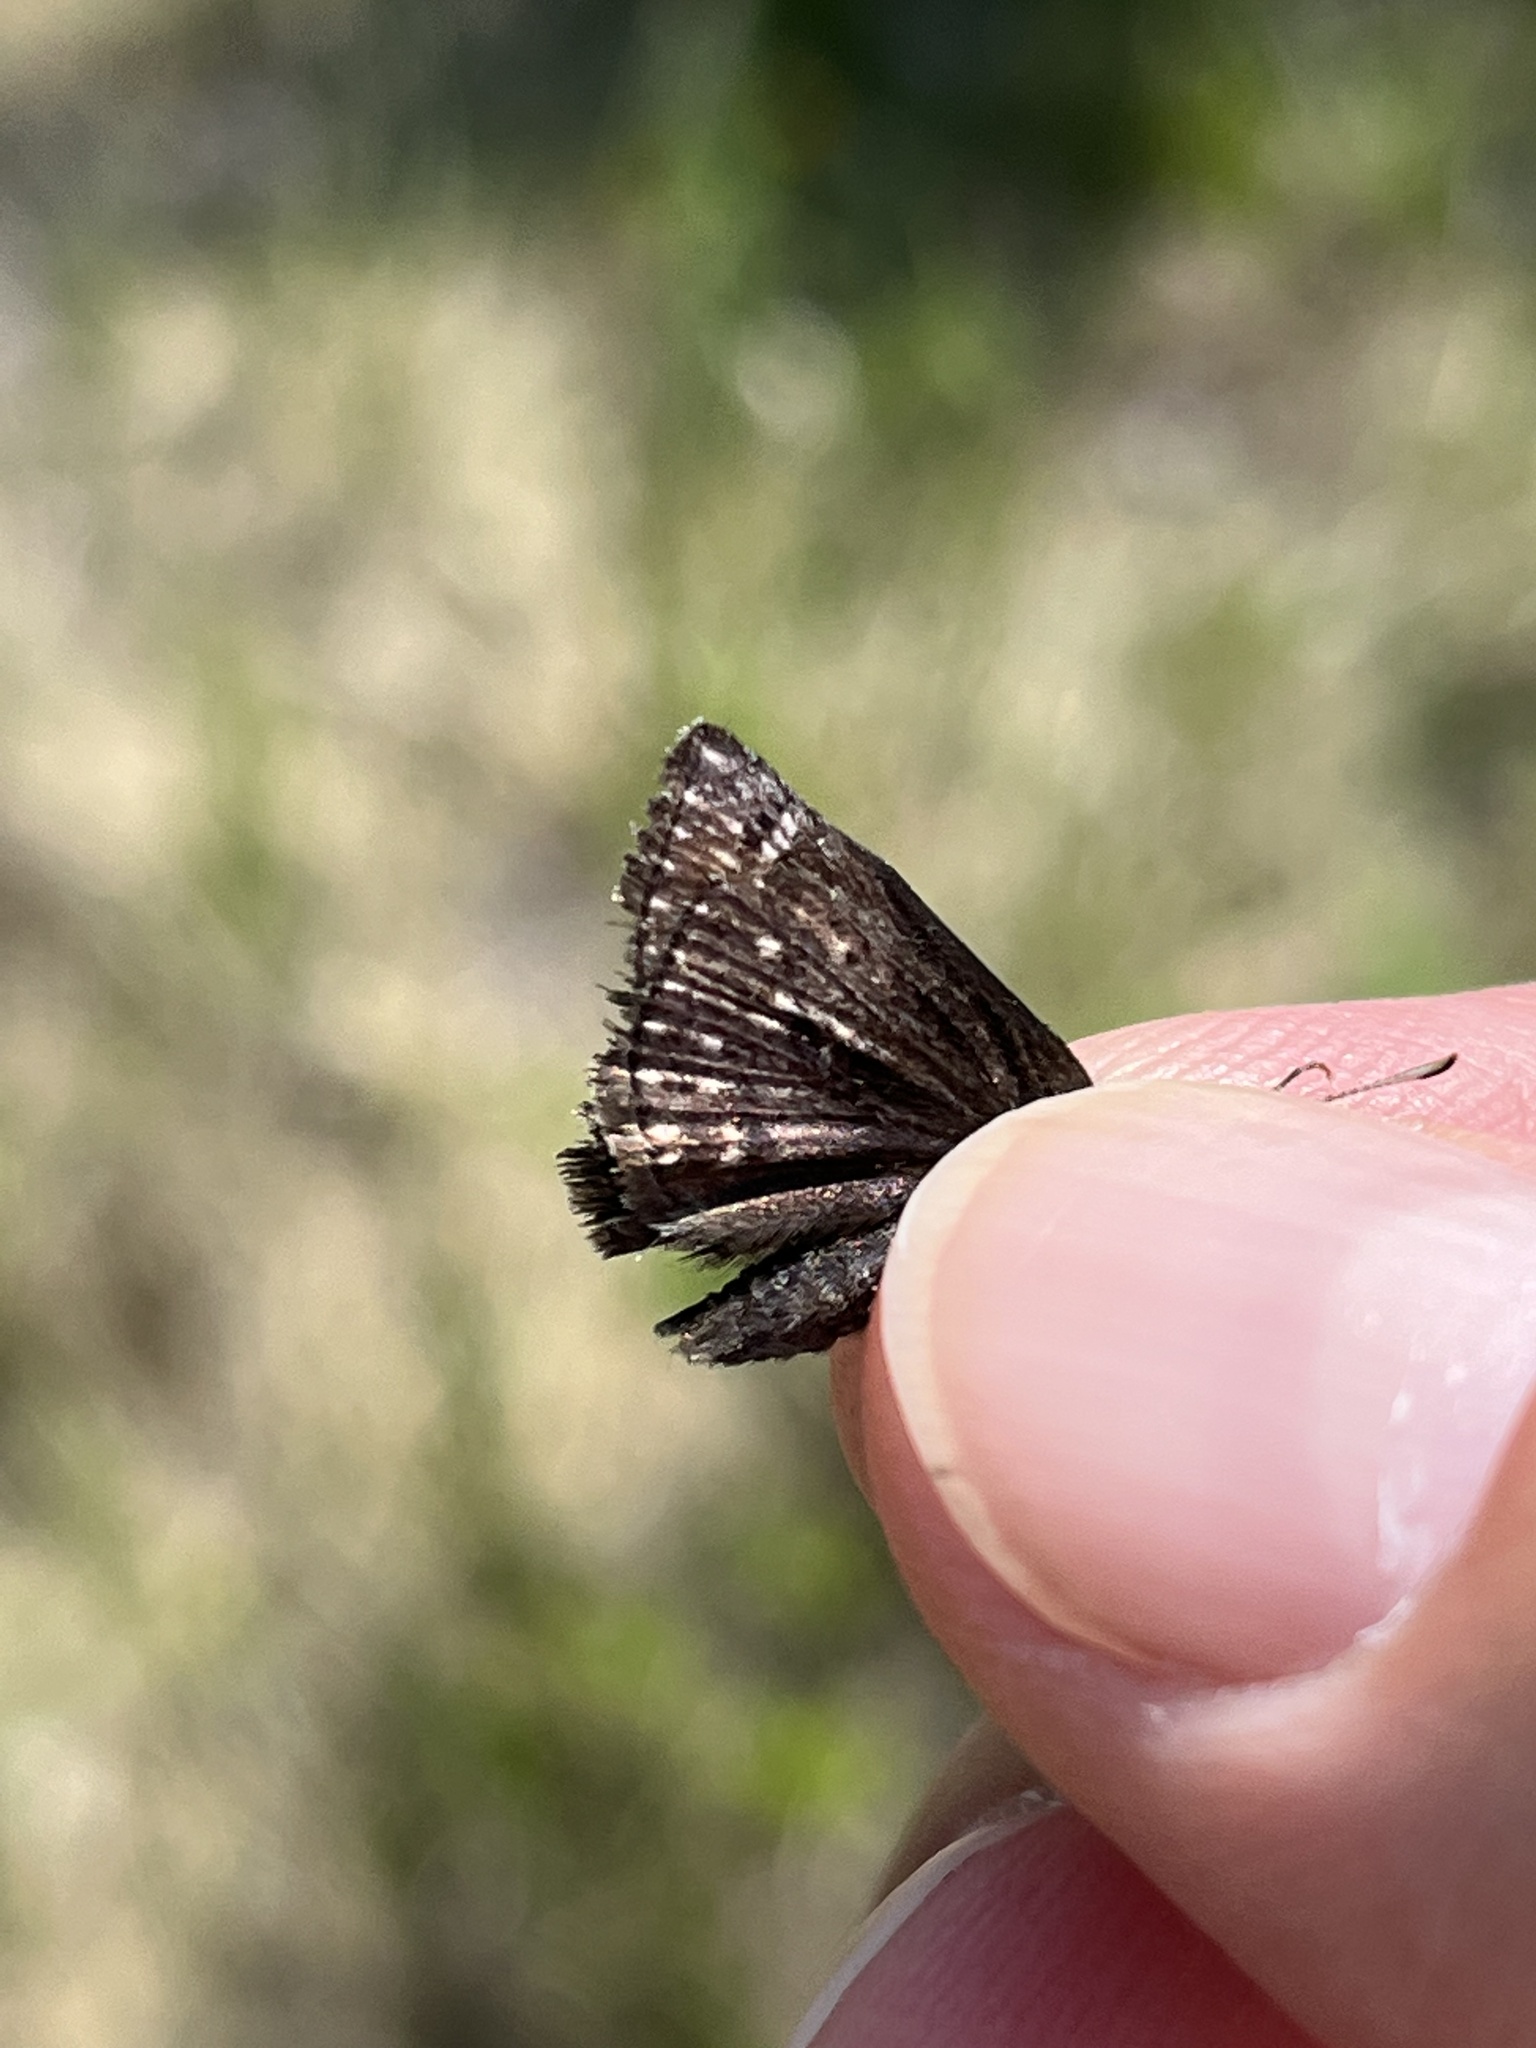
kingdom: Animalia
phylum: Arthropoda
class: Insecta
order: Lepidoptera
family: Hesperiidae
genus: Erynnis
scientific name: Erynnis persius
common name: Persius duskywing
